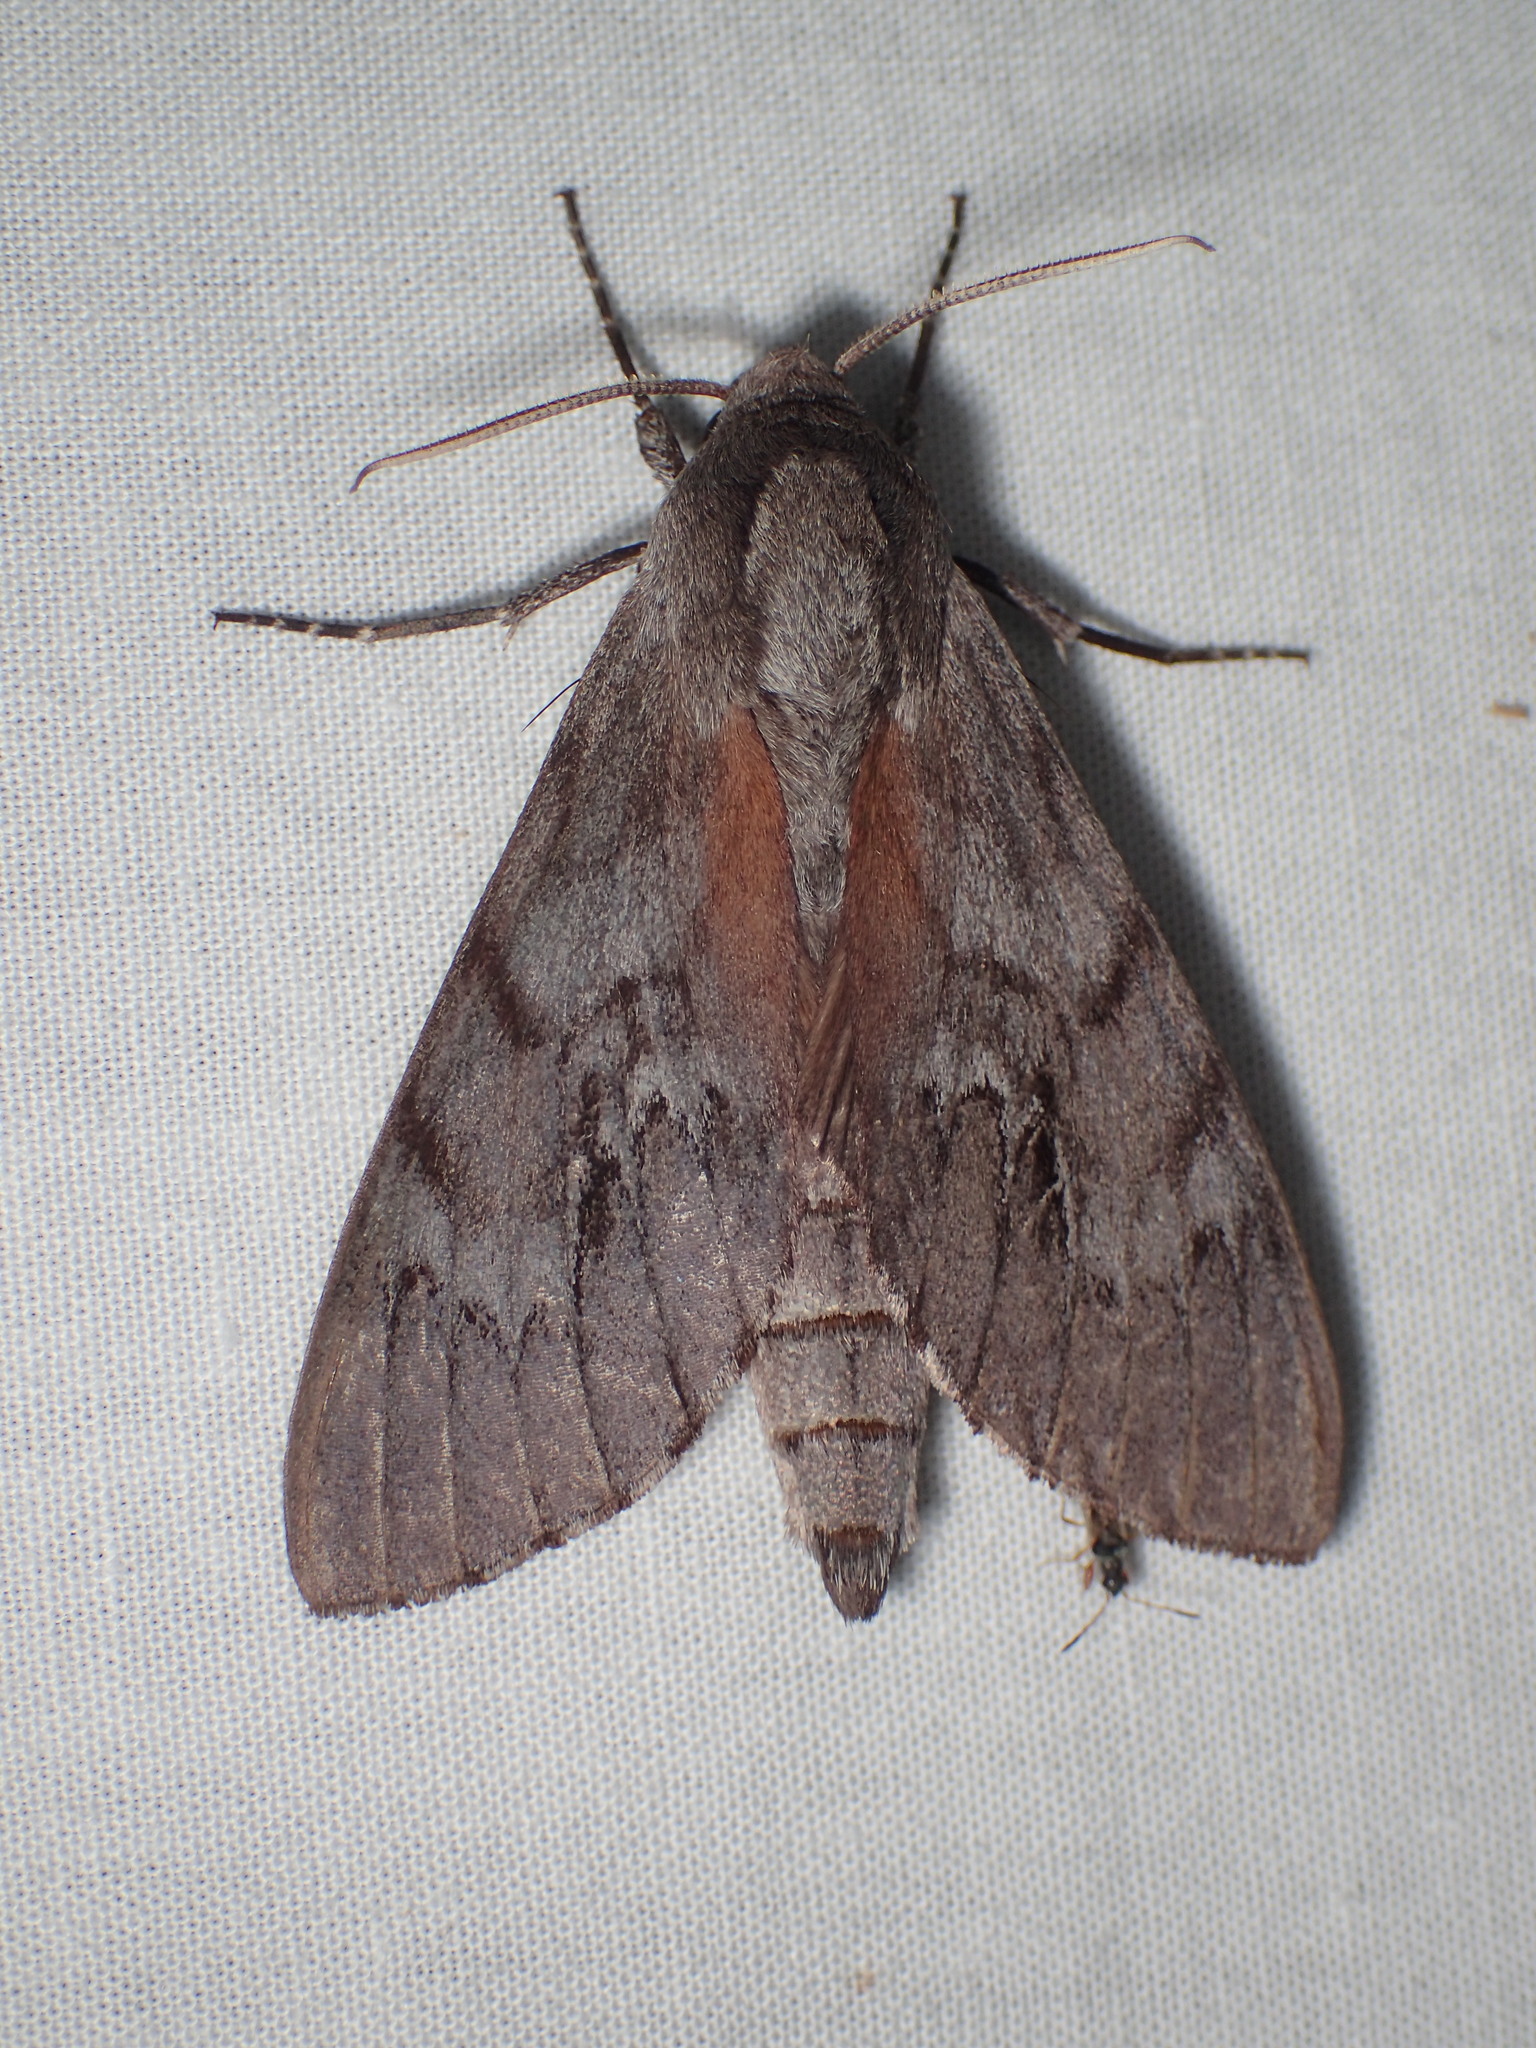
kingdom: Animalia
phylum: Arthropoda
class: Insecta
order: Lepidoptera
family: Sphingidae
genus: Lapara
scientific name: Lapara coniferarum
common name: Southern pine sphinx
